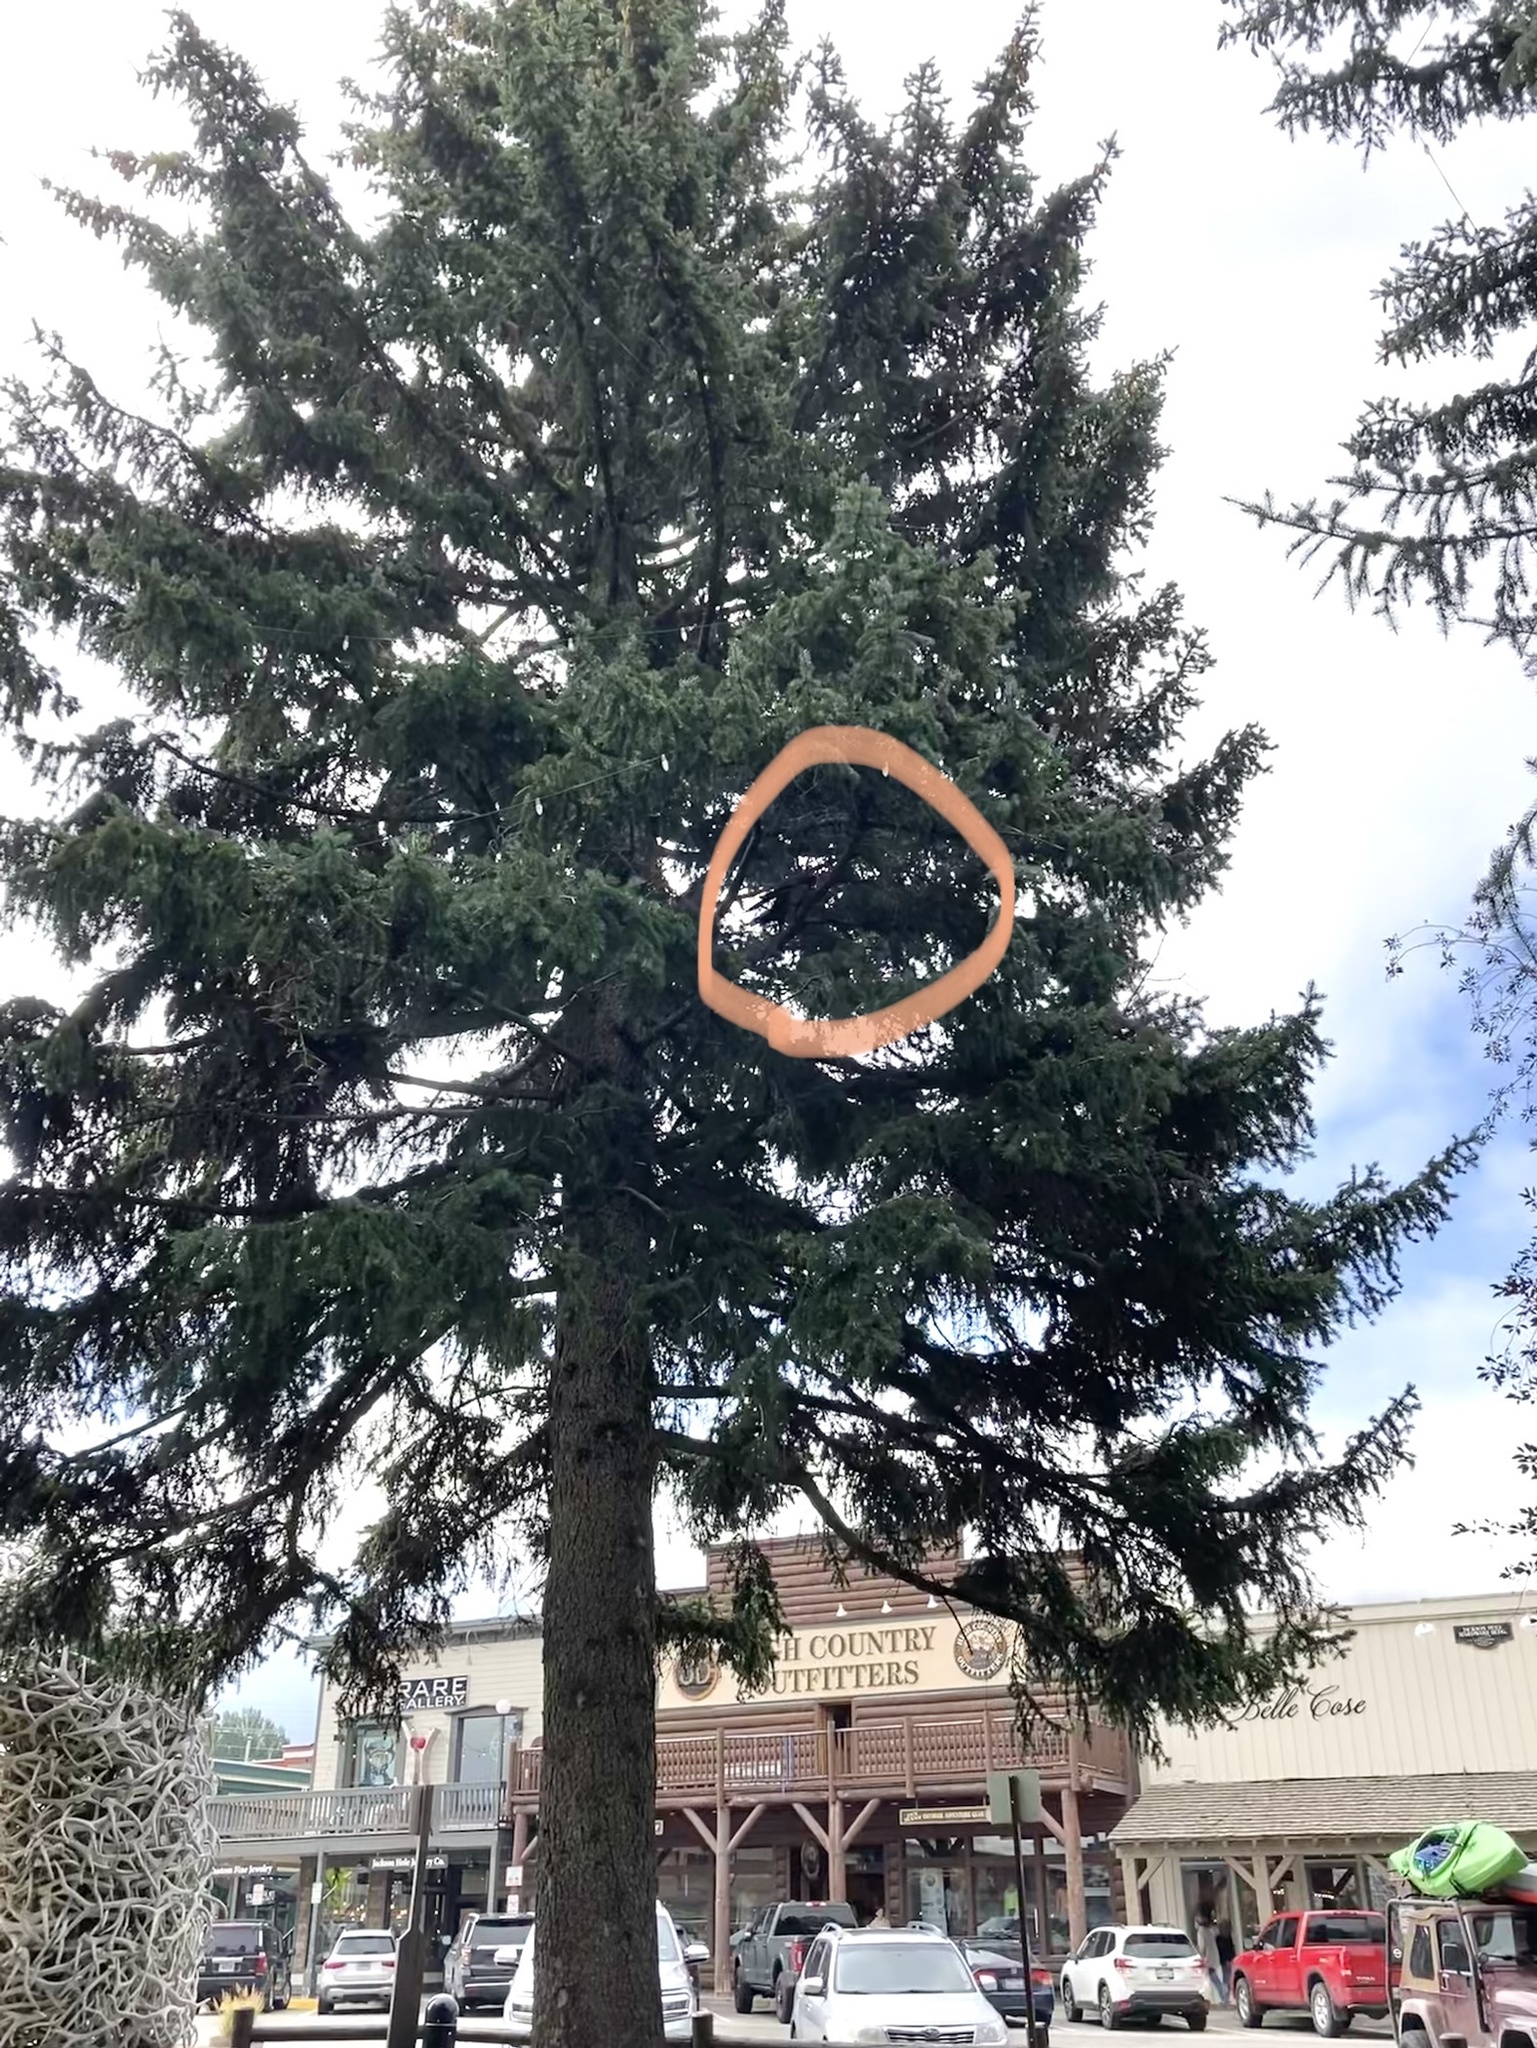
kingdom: Animalia
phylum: Chordata
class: Aves
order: Passeriformes
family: Corvidae
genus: Corvus
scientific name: Corvus brachyrhynchos
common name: American crow
